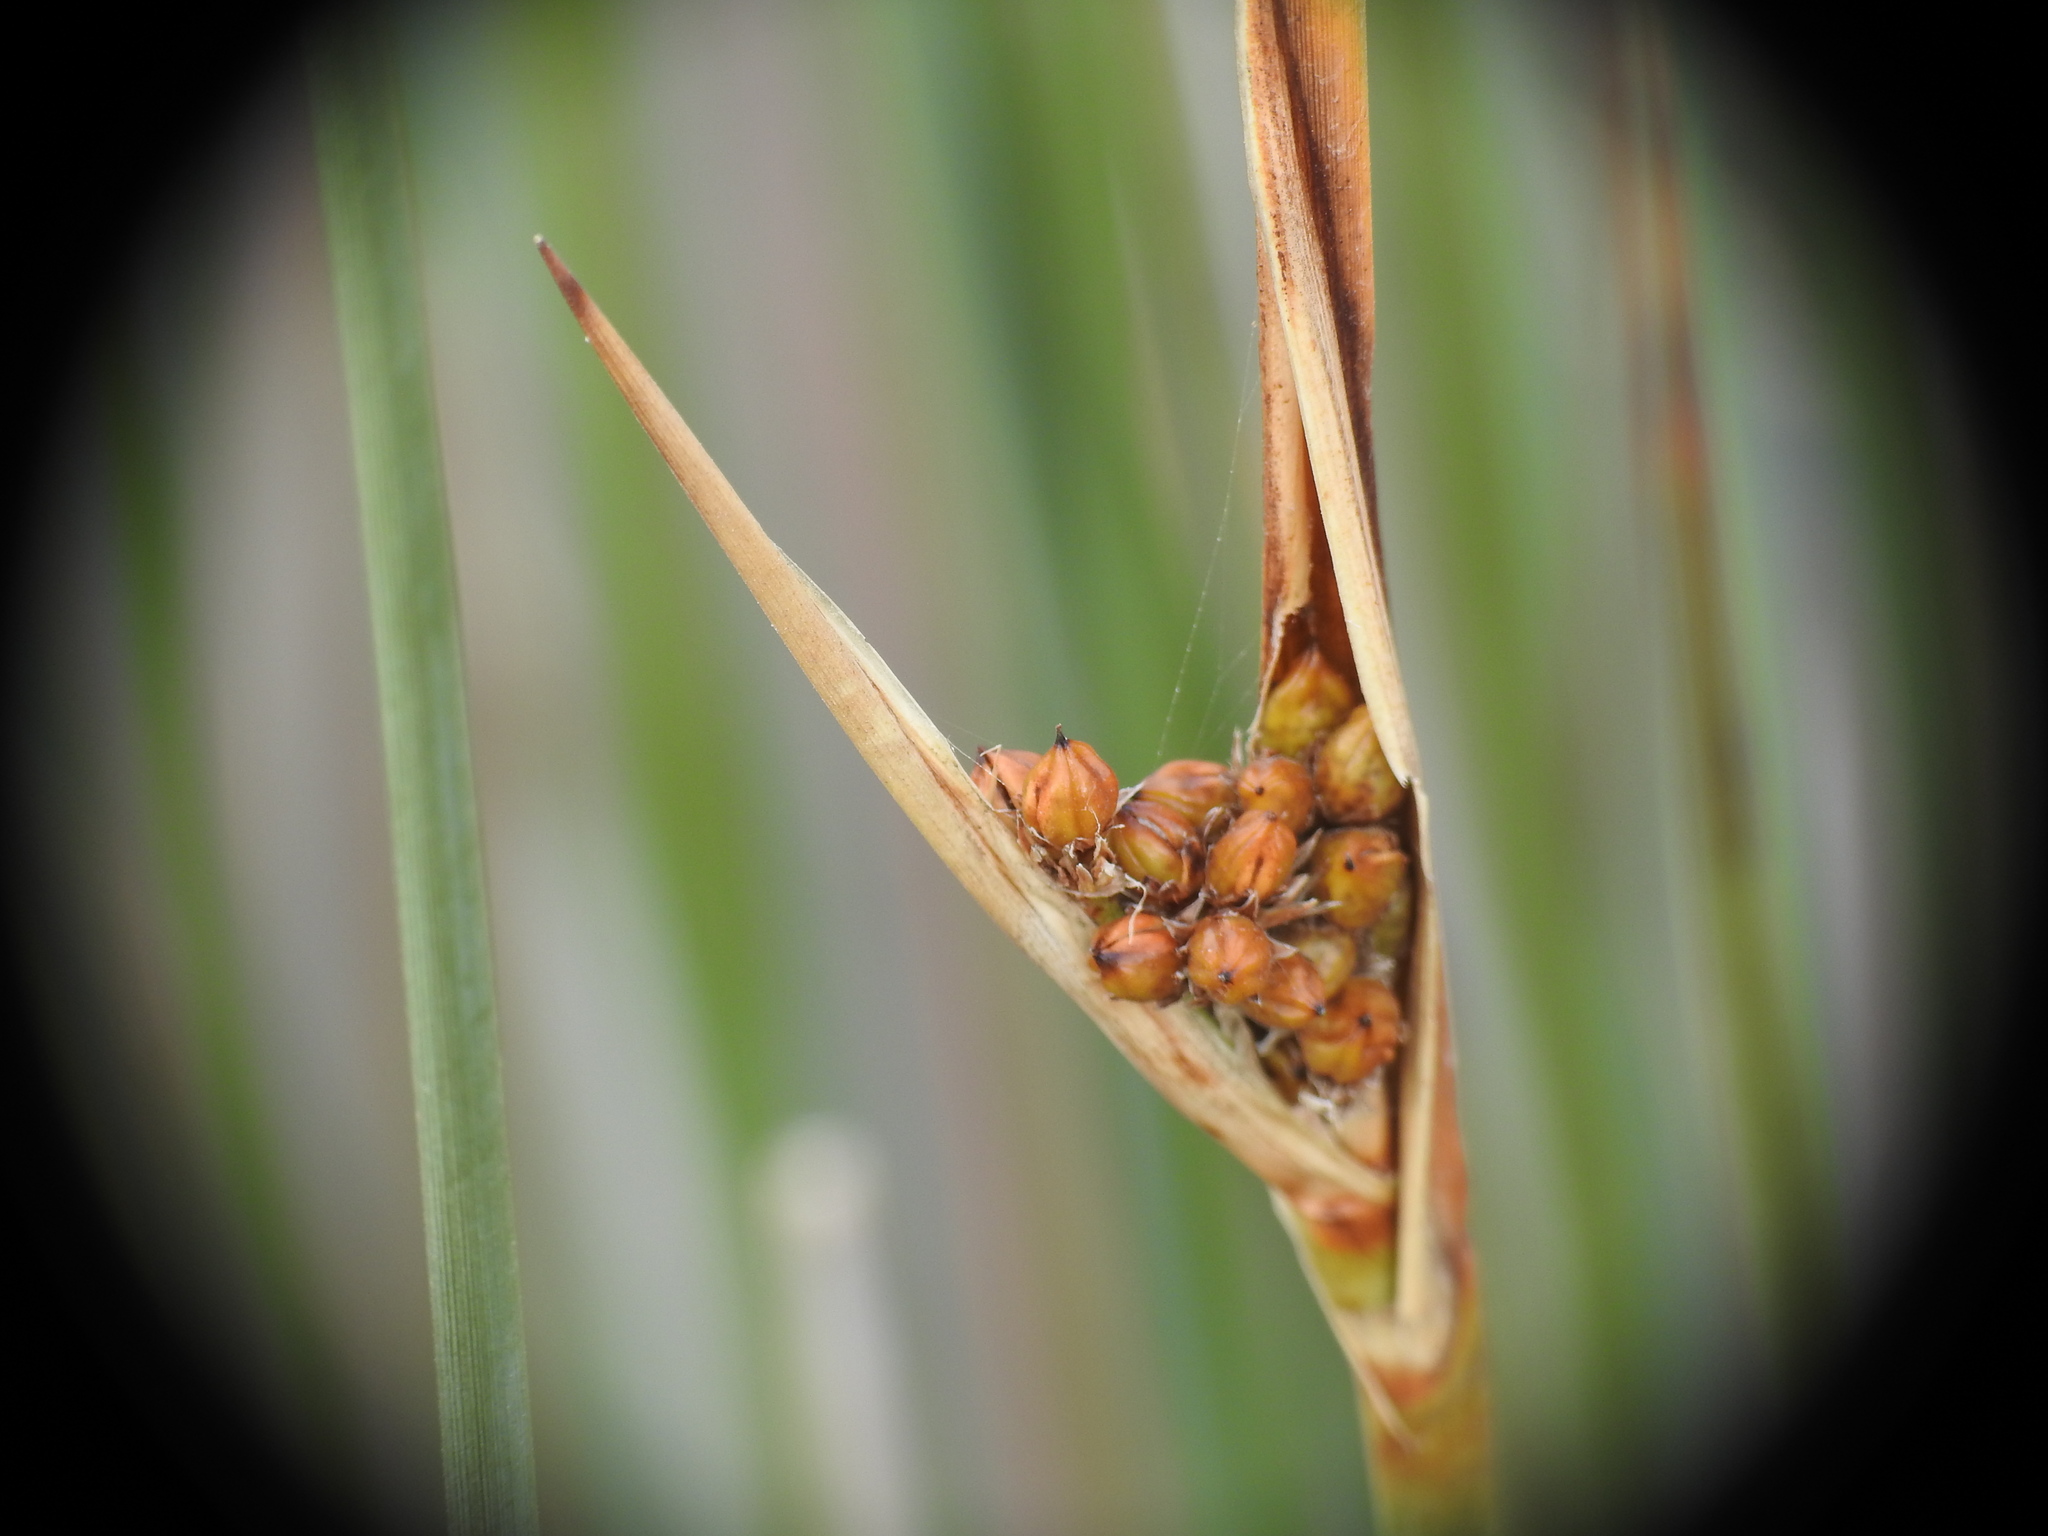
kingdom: Plantae
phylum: Tracheophyta
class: Liliopsida
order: Poales
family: Juncaceae
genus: Juncus
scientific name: Juncus acutus
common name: Sharp rush
